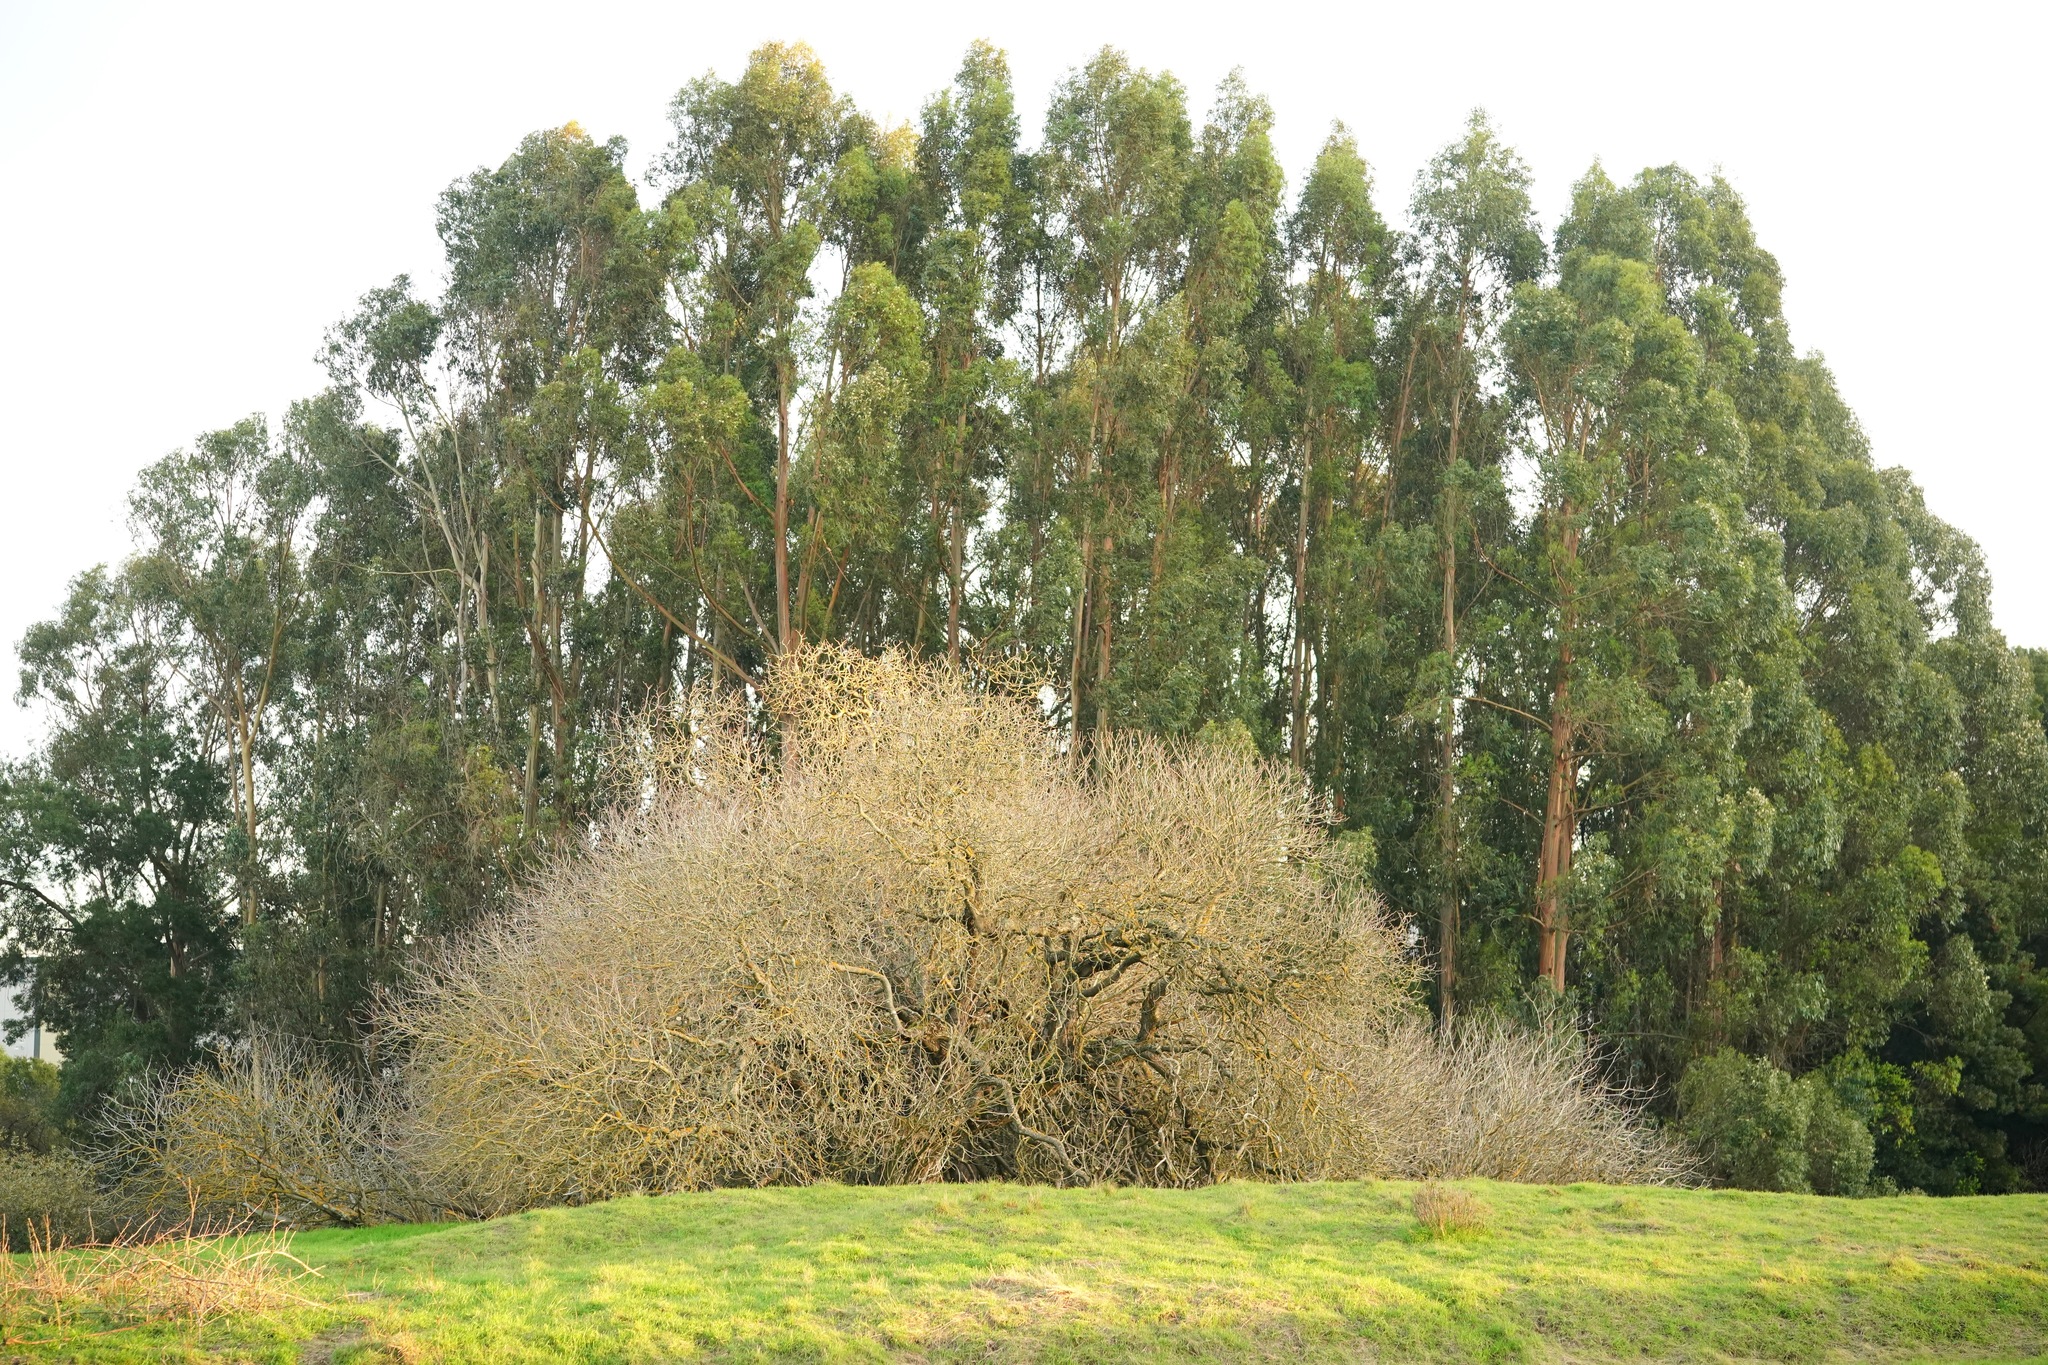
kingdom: Plantae
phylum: Tracheophyta
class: Magnoliopsida
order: Sapindales
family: Sapindaceae
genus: Aesculus
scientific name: Aesculus californica
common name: California buckeye
